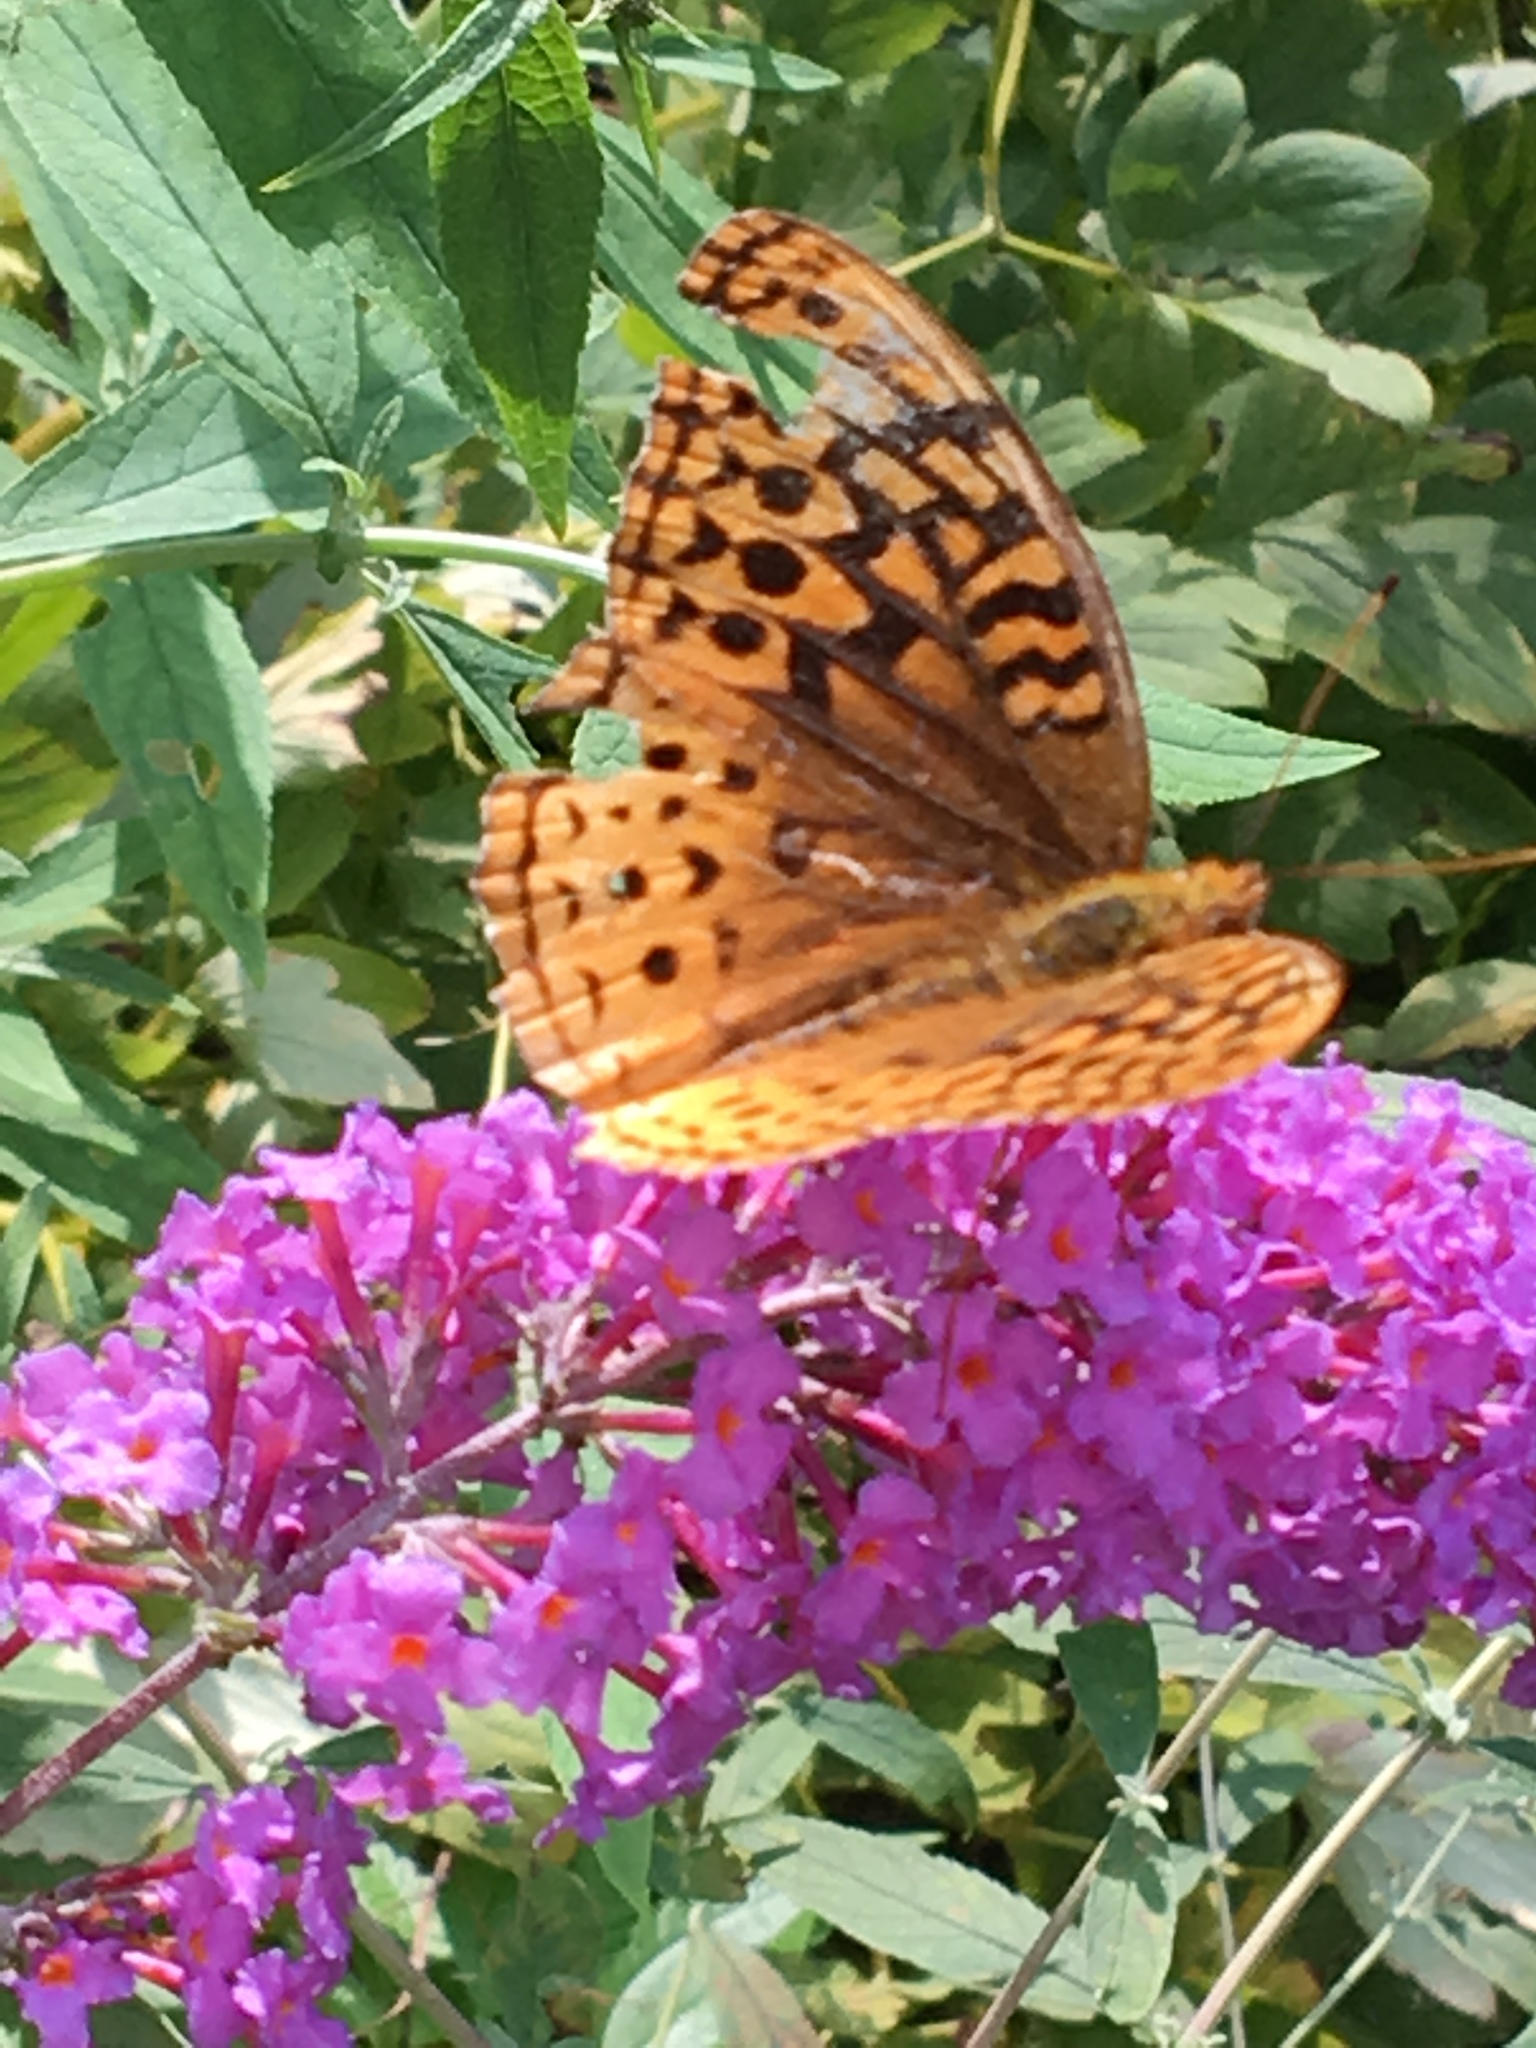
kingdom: Animalia
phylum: Arthropoda
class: Insecta
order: Lepidoptera
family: Nymphalidae
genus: Speyeria
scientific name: Speyeria cybele
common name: Great spangled fritillary
